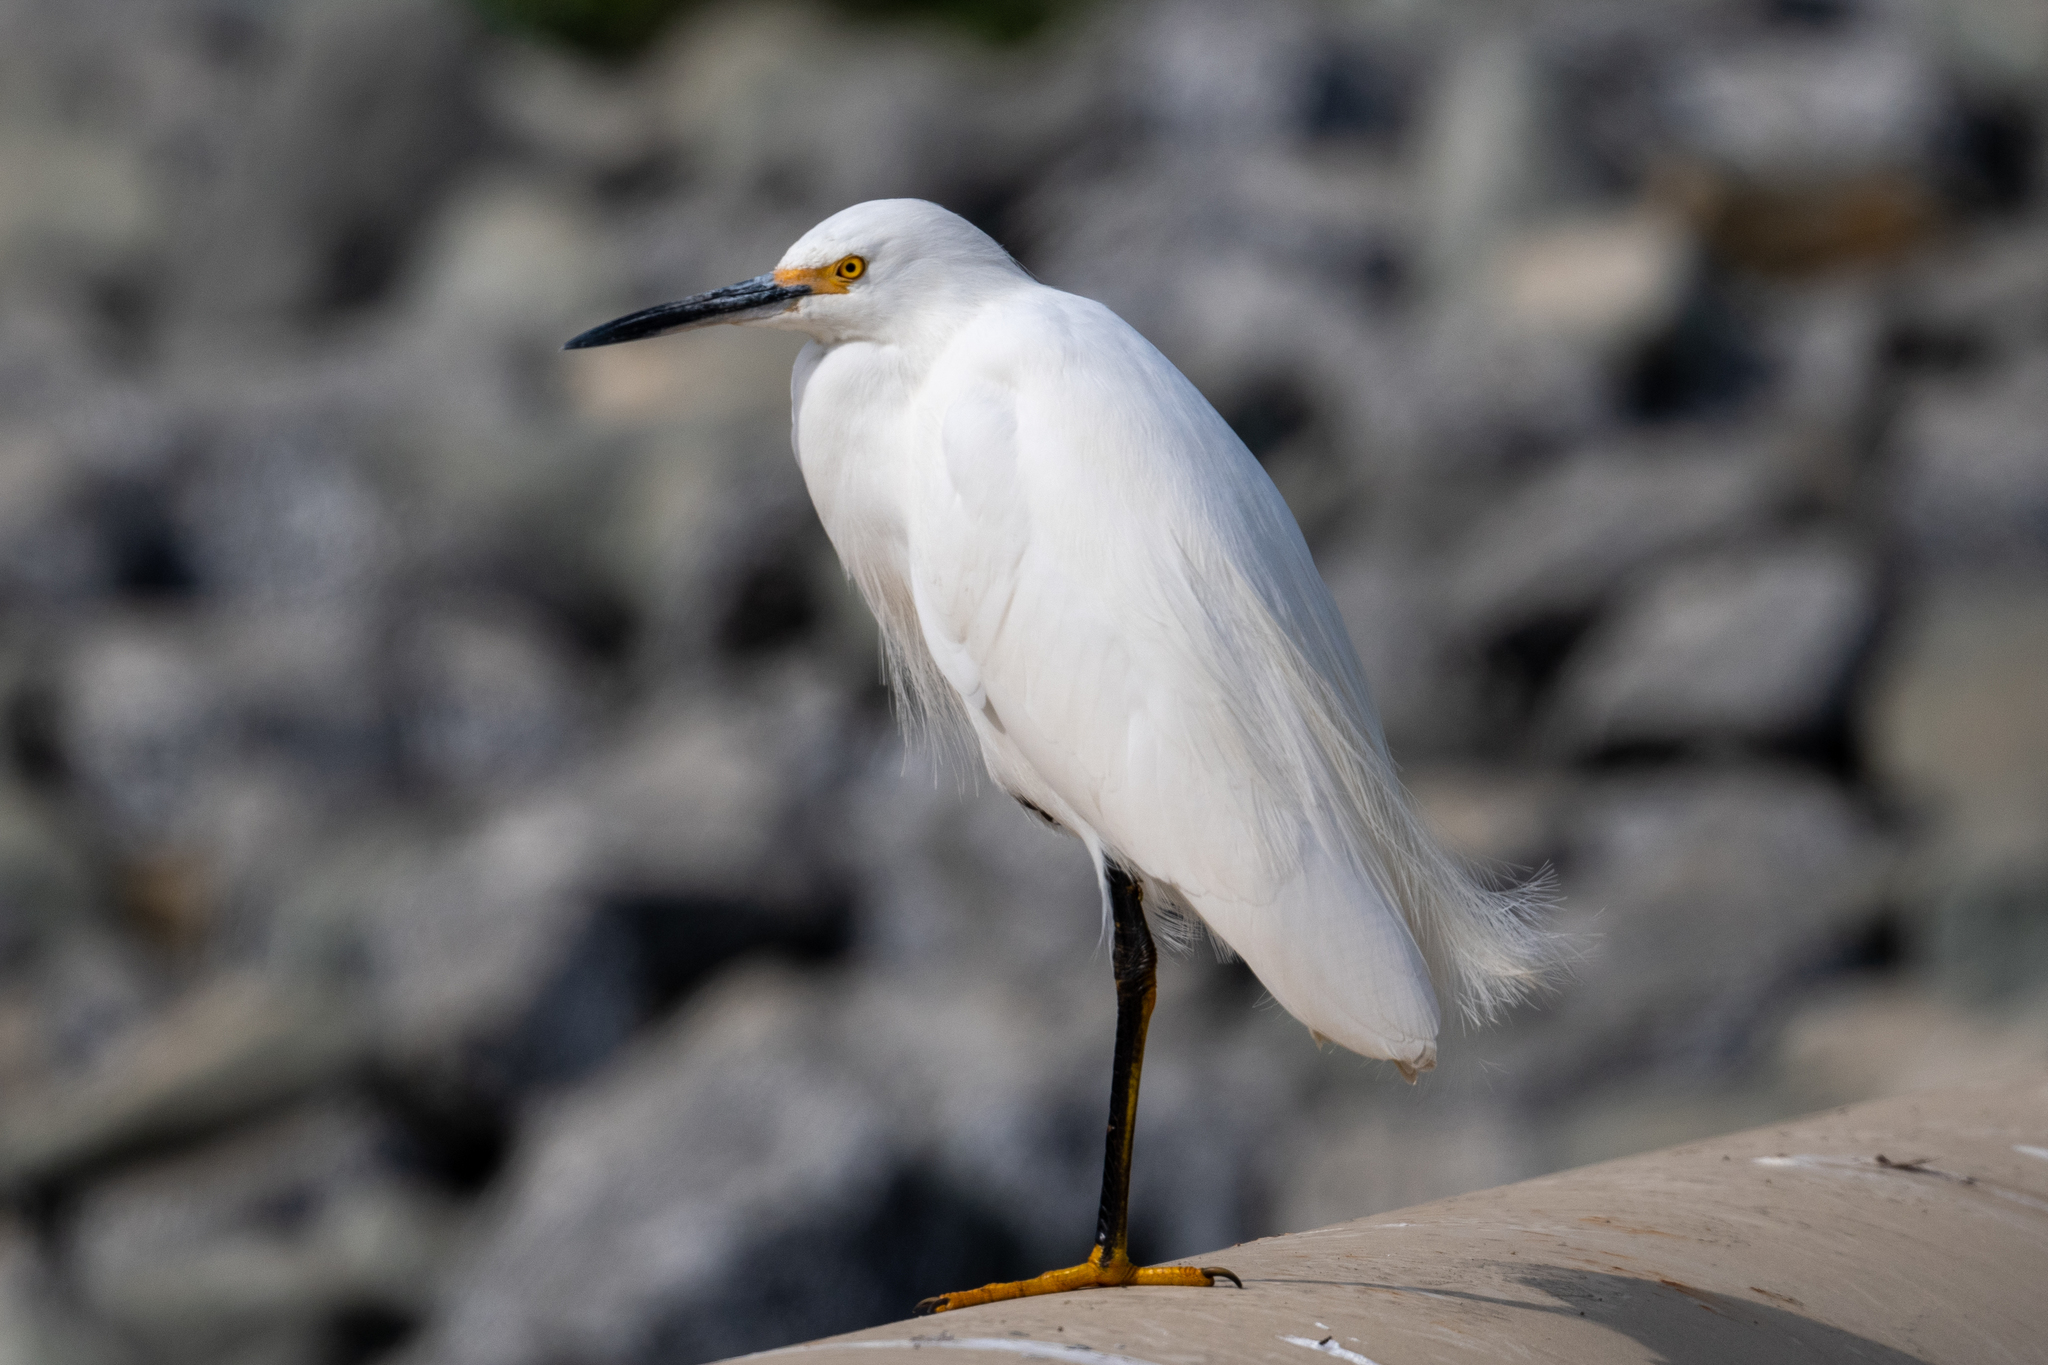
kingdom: Animalia
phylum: Chordata
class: Aves
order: Pelecaniformes
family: Ardeidae
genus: Egretta
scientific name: Egretta thula
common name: Snowy egret
